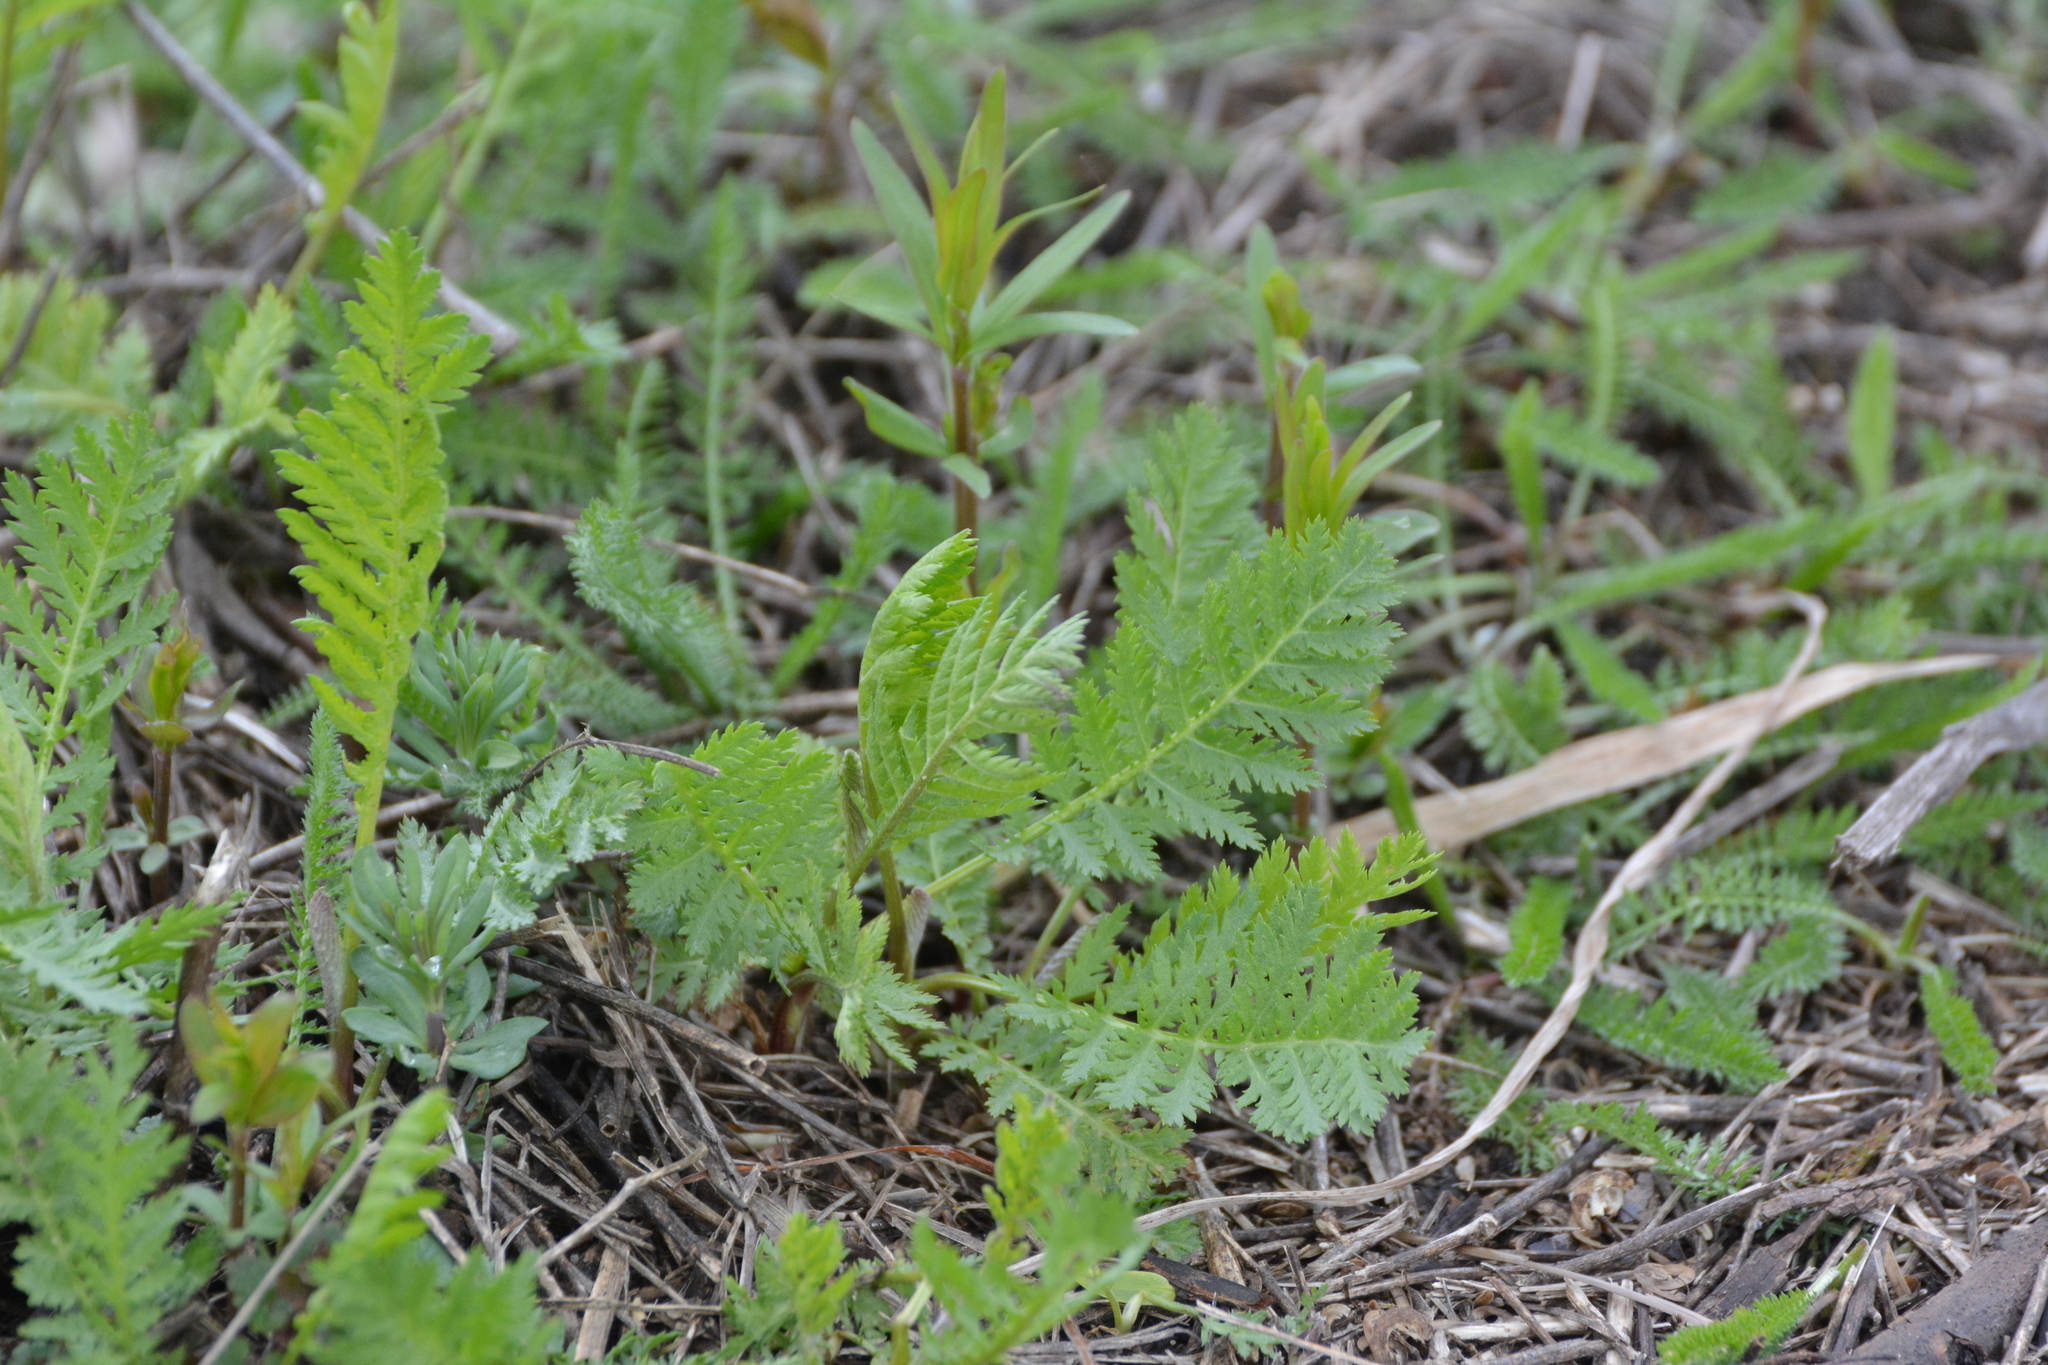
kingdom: Plantae
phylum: Tracheophyta
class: Magnoliopsida
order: Asterales
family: Asteraceae
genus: Tanacetum
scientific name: Tanacetum vulgare
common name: Common tansy
